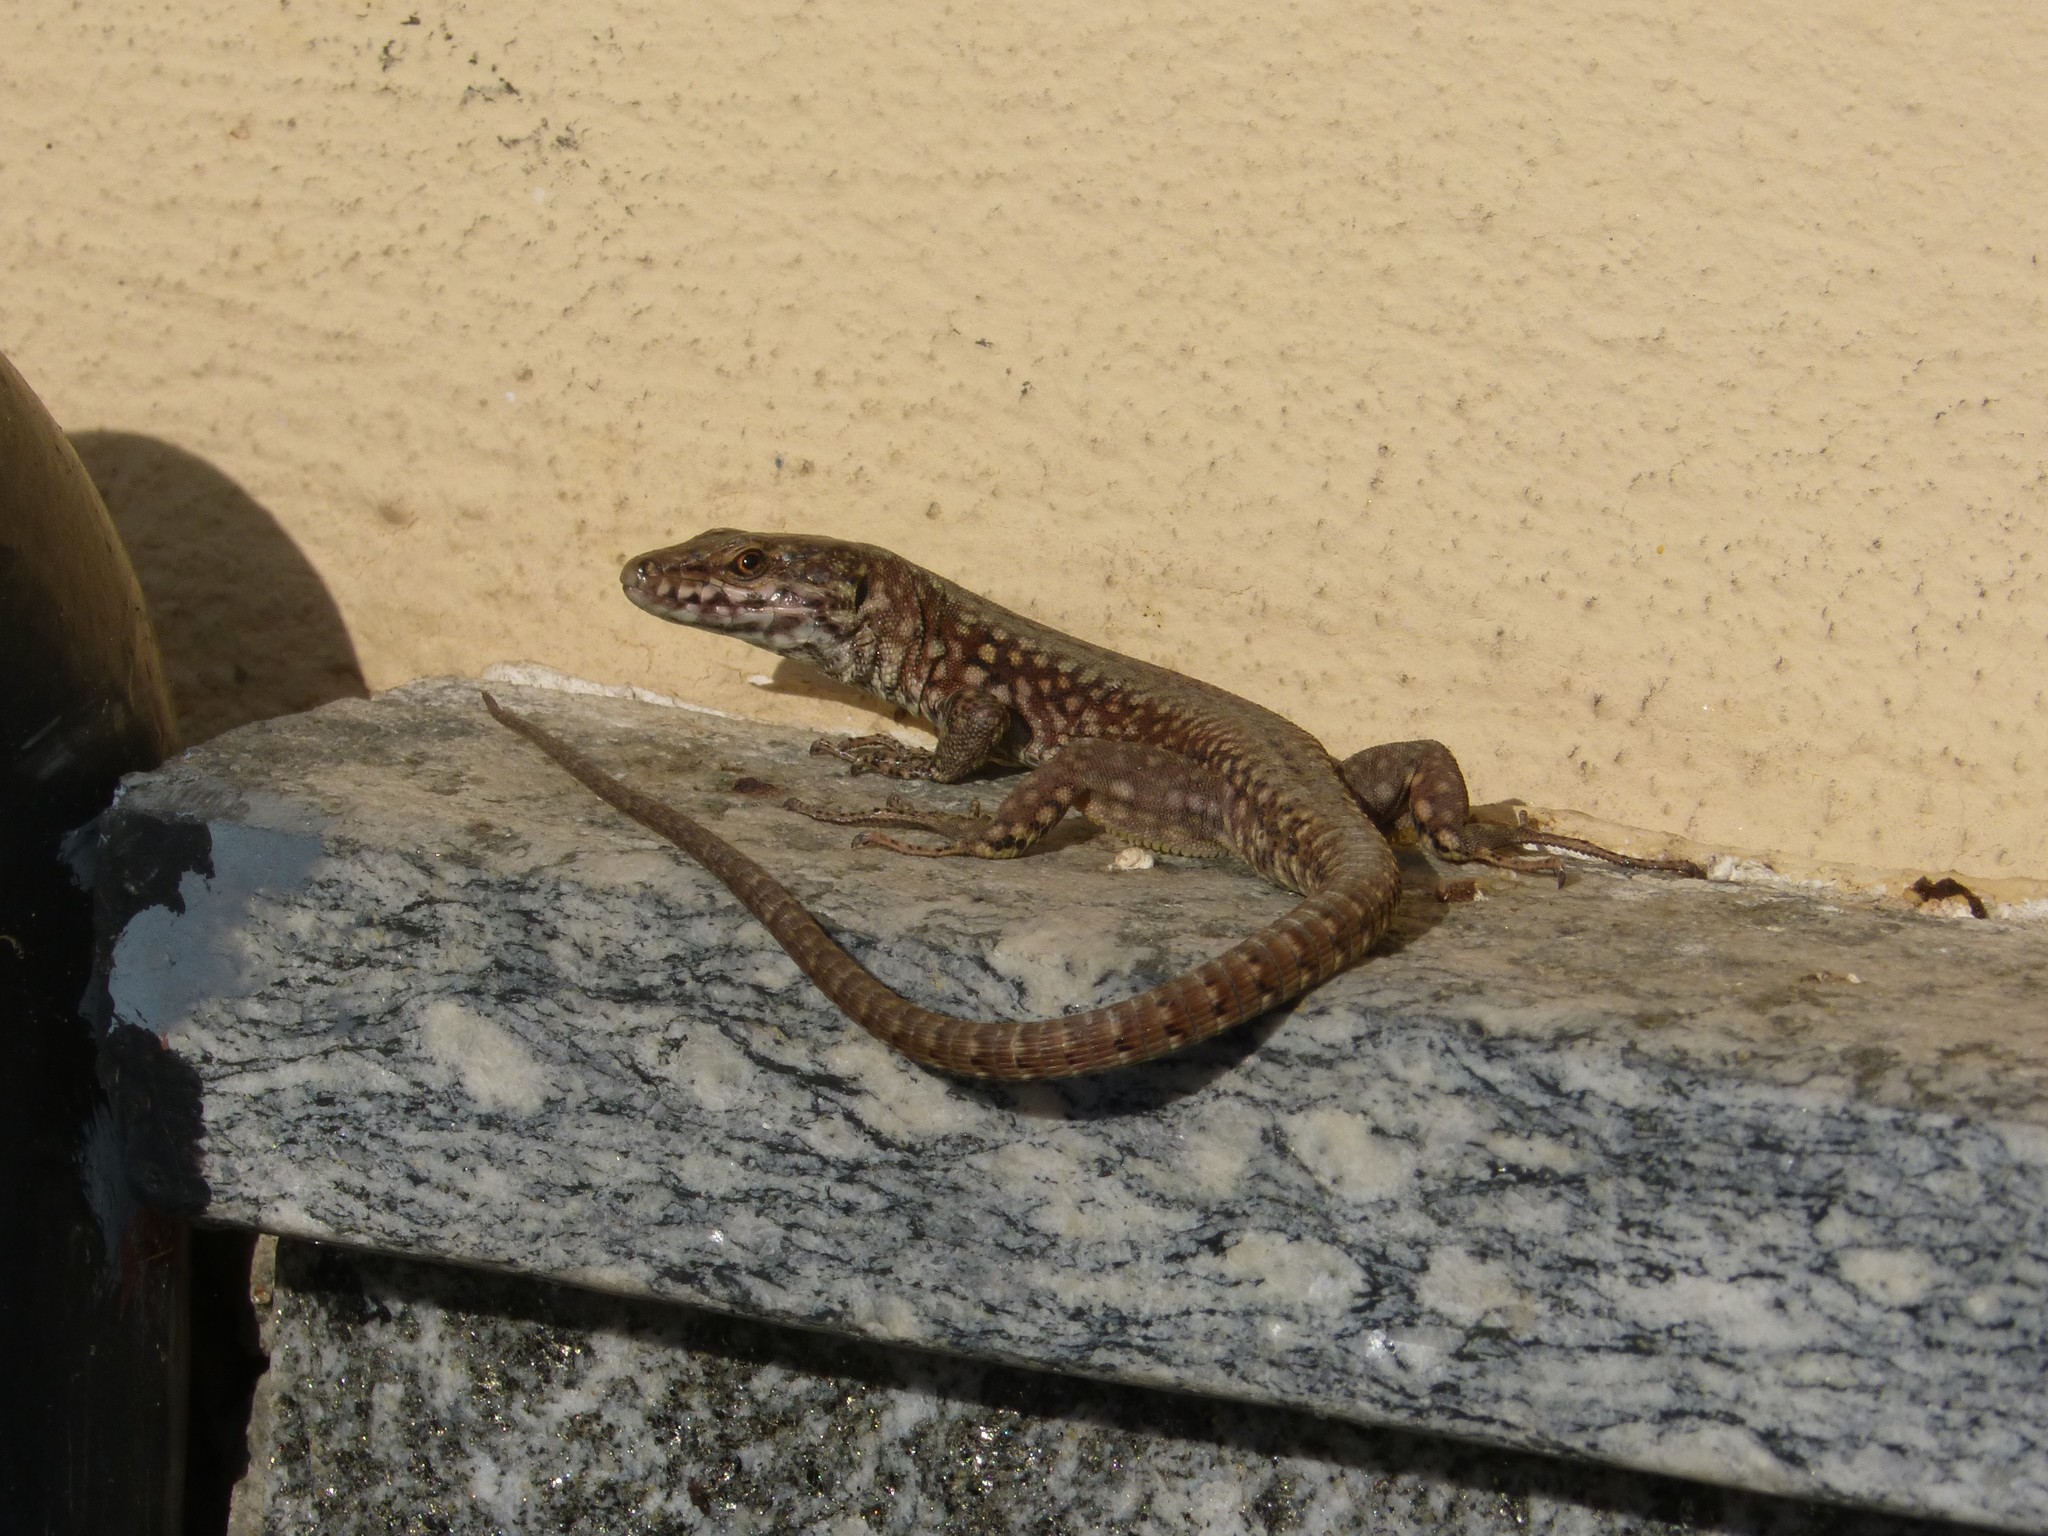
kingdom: Animalia
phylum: Chordata
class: Squamata
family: Lacertidae
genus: Podarcis
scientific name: Podarcis muralis
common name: Common wall lizard
